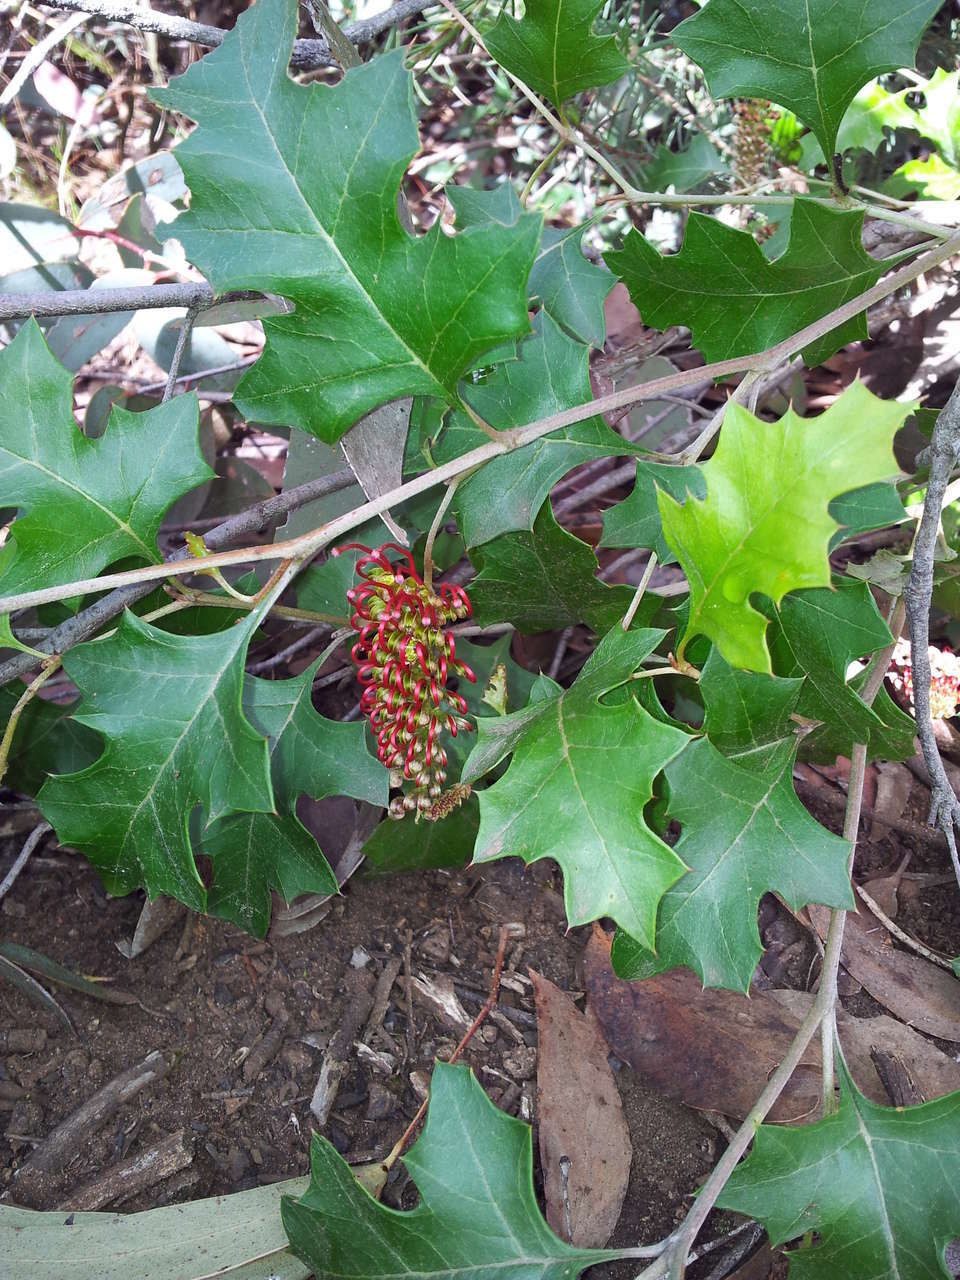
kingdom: Plantae
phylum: Tracheophyta
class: Magnoliopsida
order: Proteales
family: Proteaceae
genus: Grevillea
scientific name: Grevillea steiglitziana
